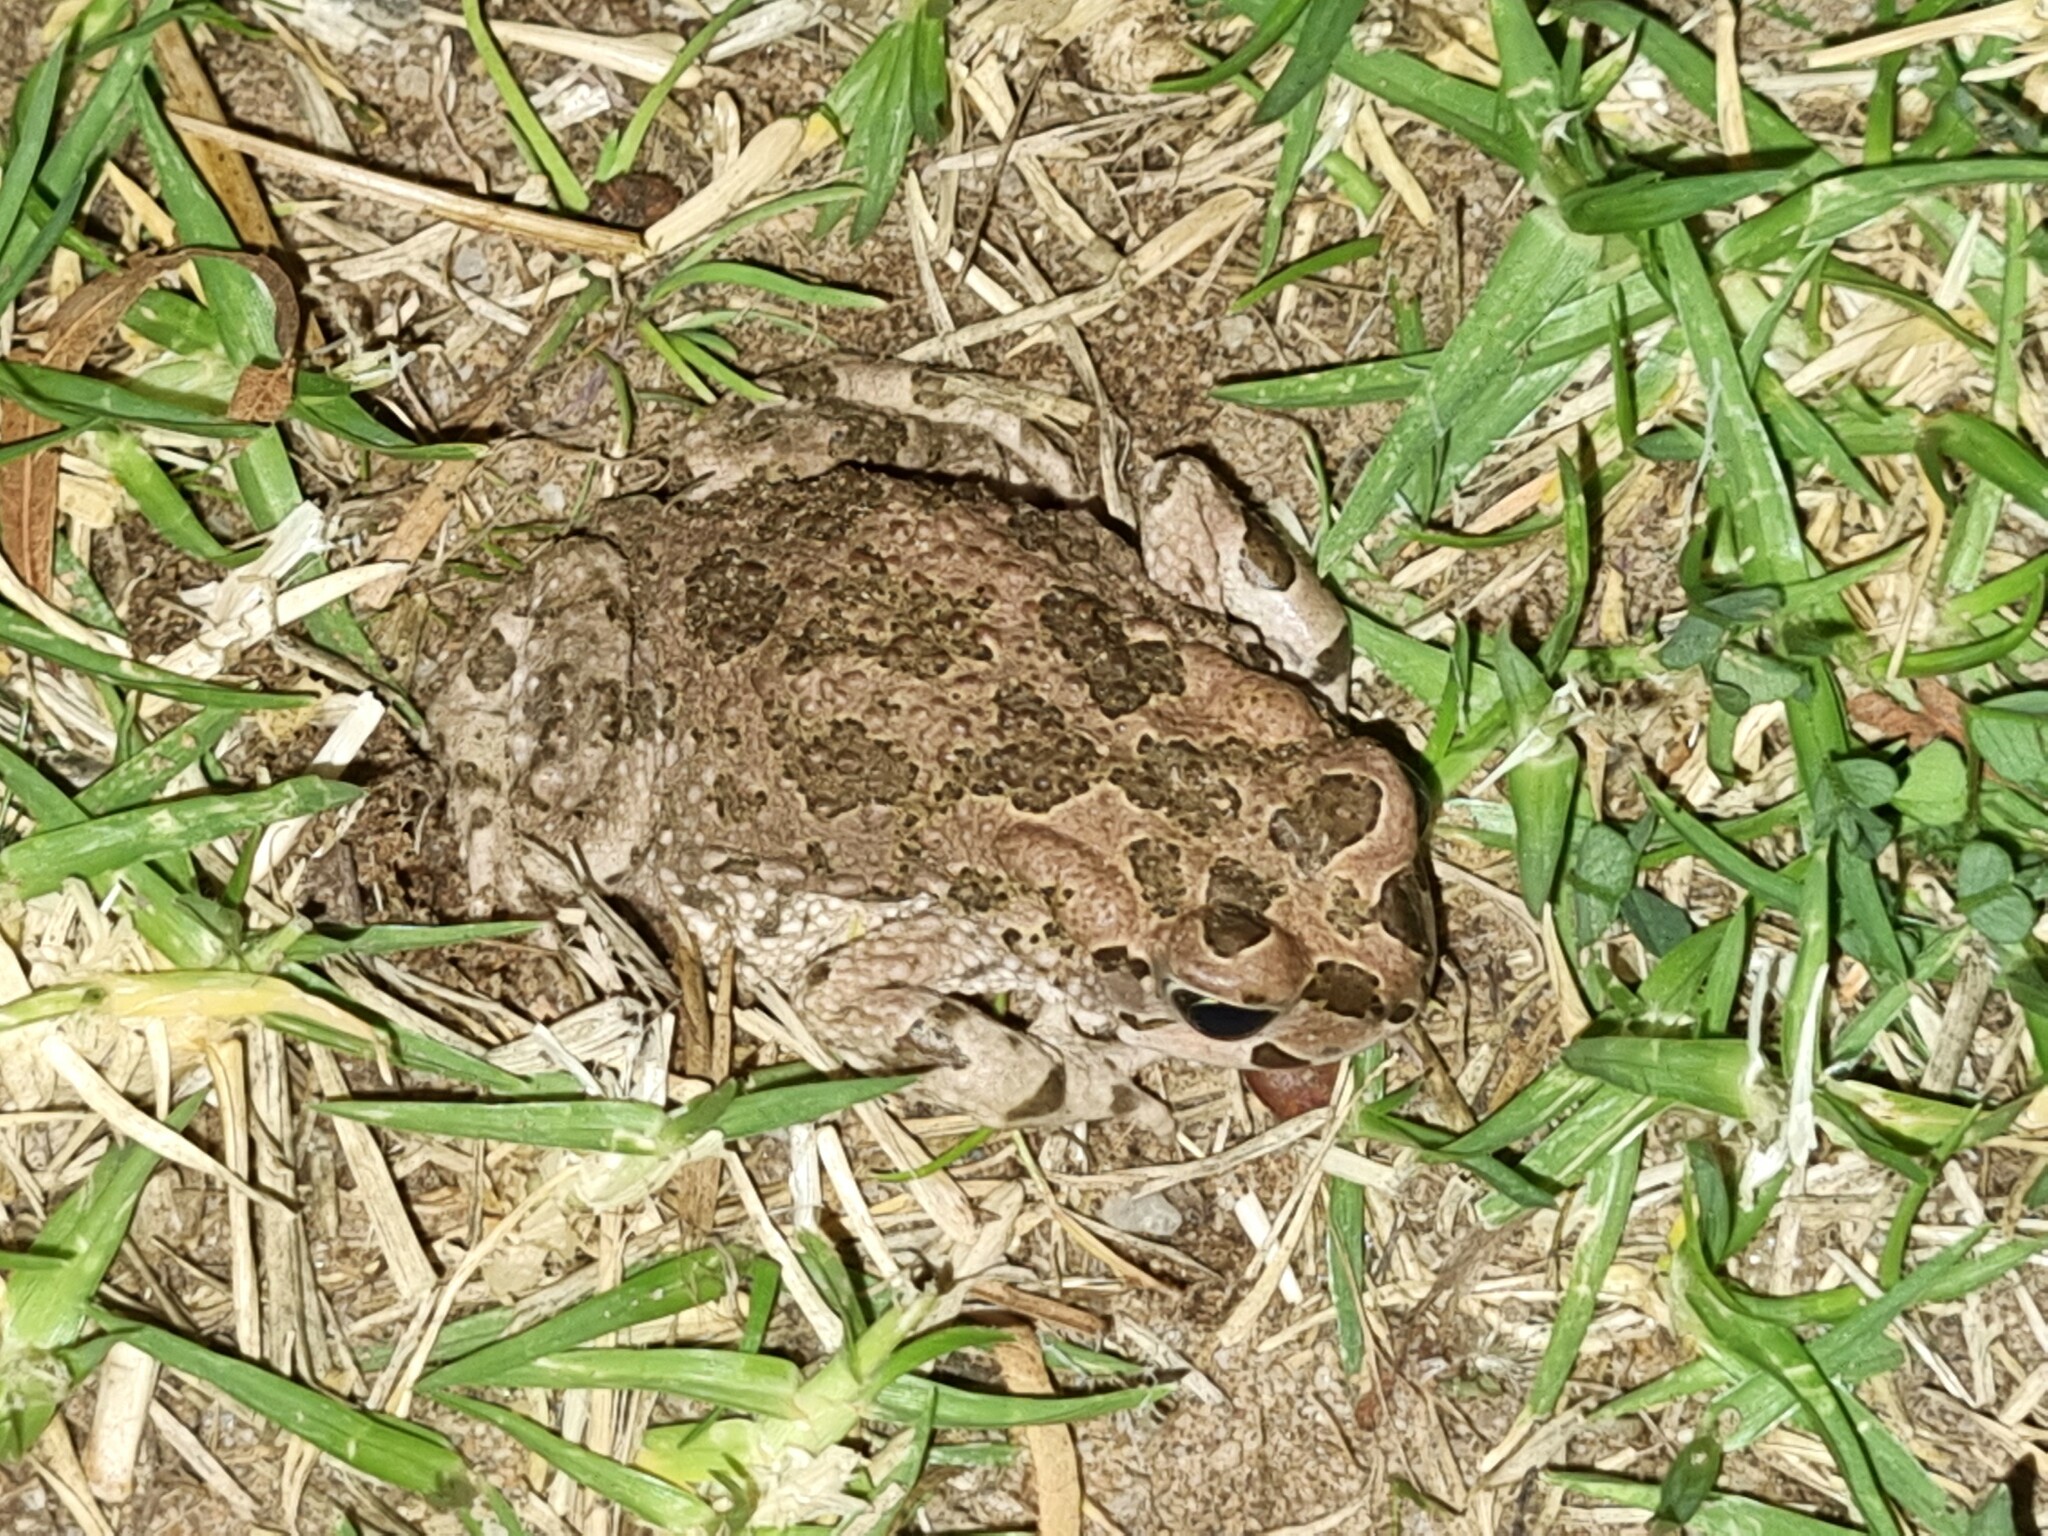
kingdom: Animalia
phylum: Chordata
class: Amphibia
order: Anura
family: Bufonidae
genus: Vandijkophrynus
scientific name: Vandijkophrynus gariepensis
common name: Gariep toad
